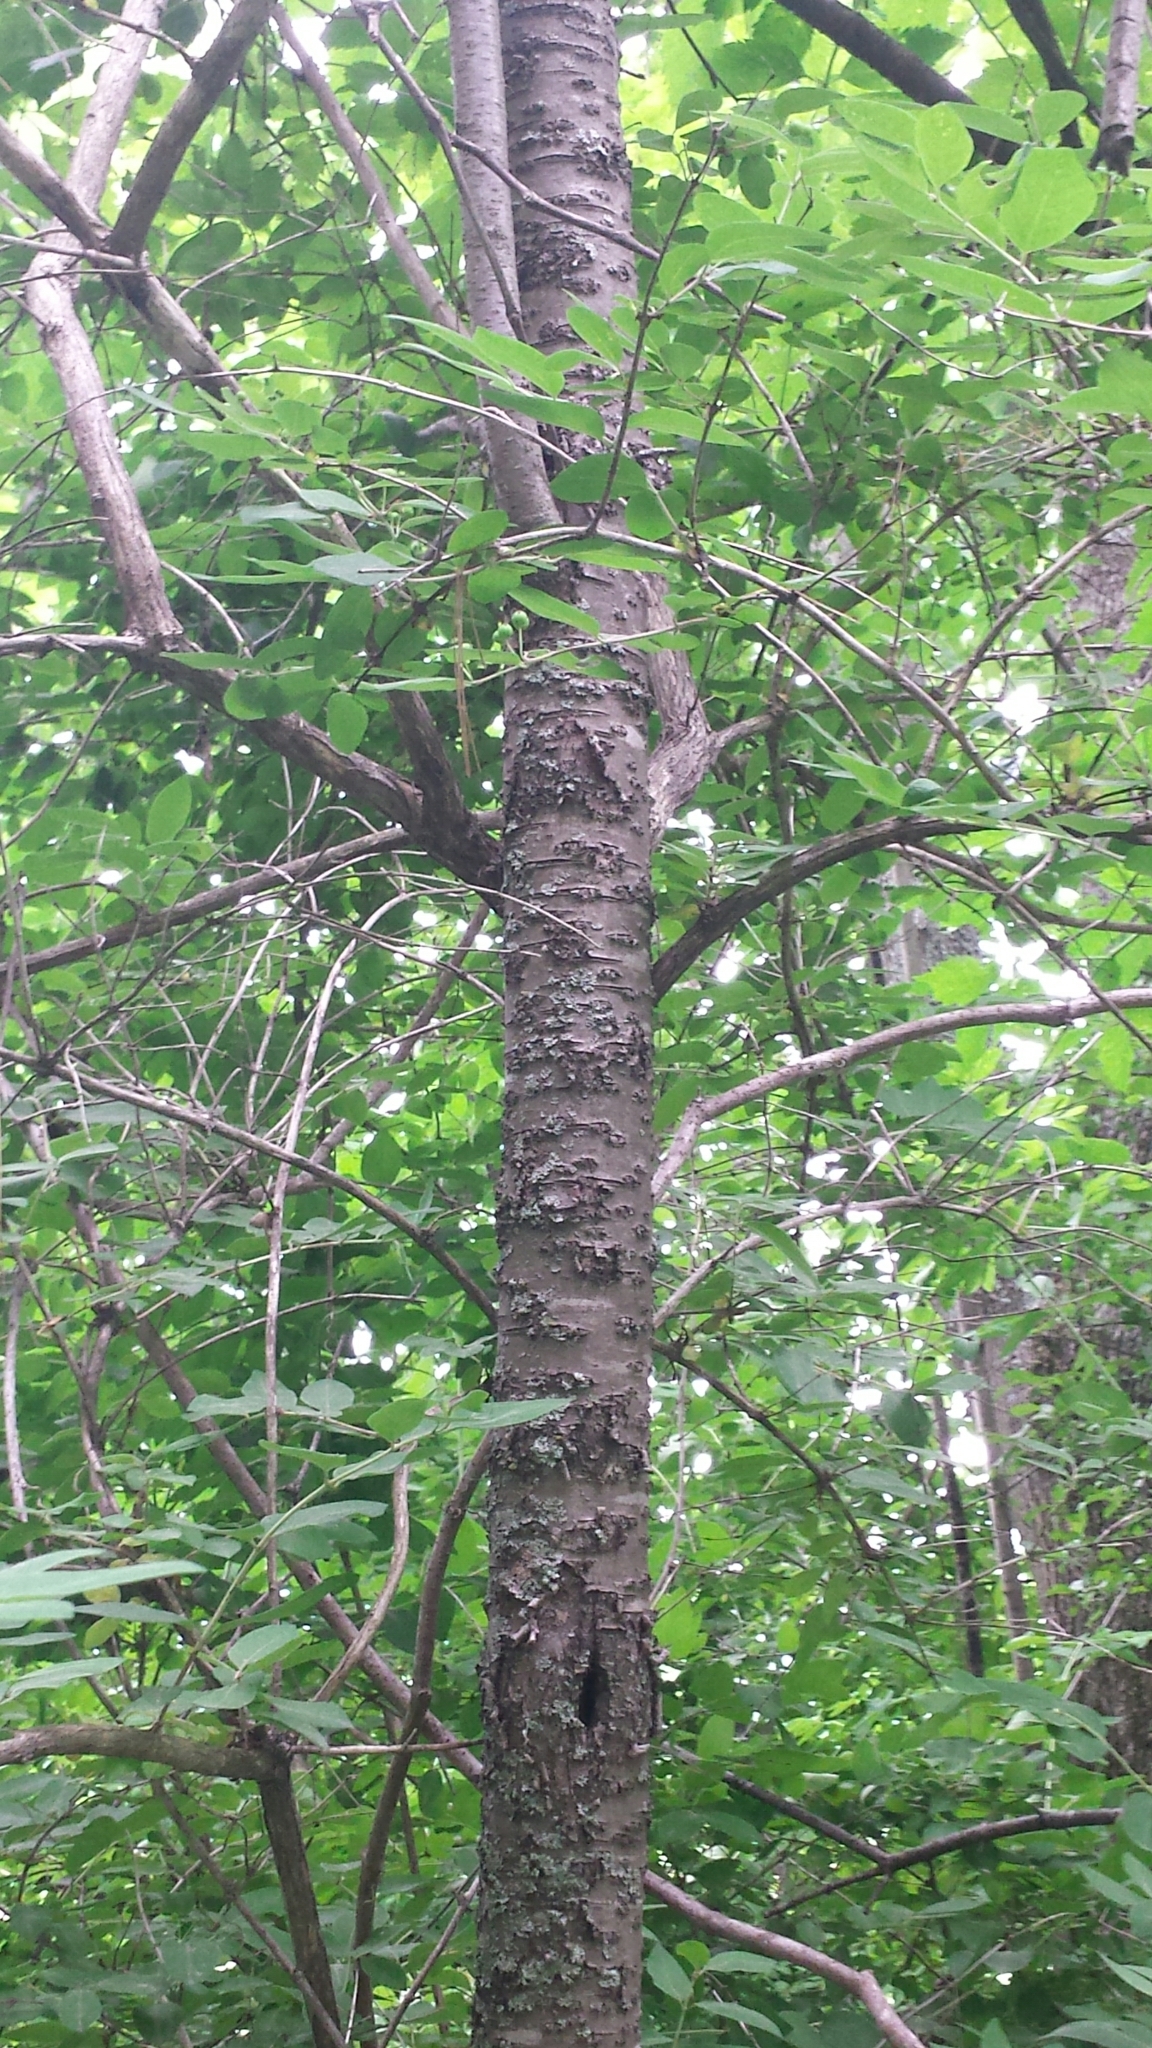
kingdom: Plantae
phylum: Tracheophyta
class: Magnoliopsida
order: Rosales
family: Rhamnaceae
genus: Rhamnus
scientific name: Rhamnus cathartica
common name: Common buckthorn
